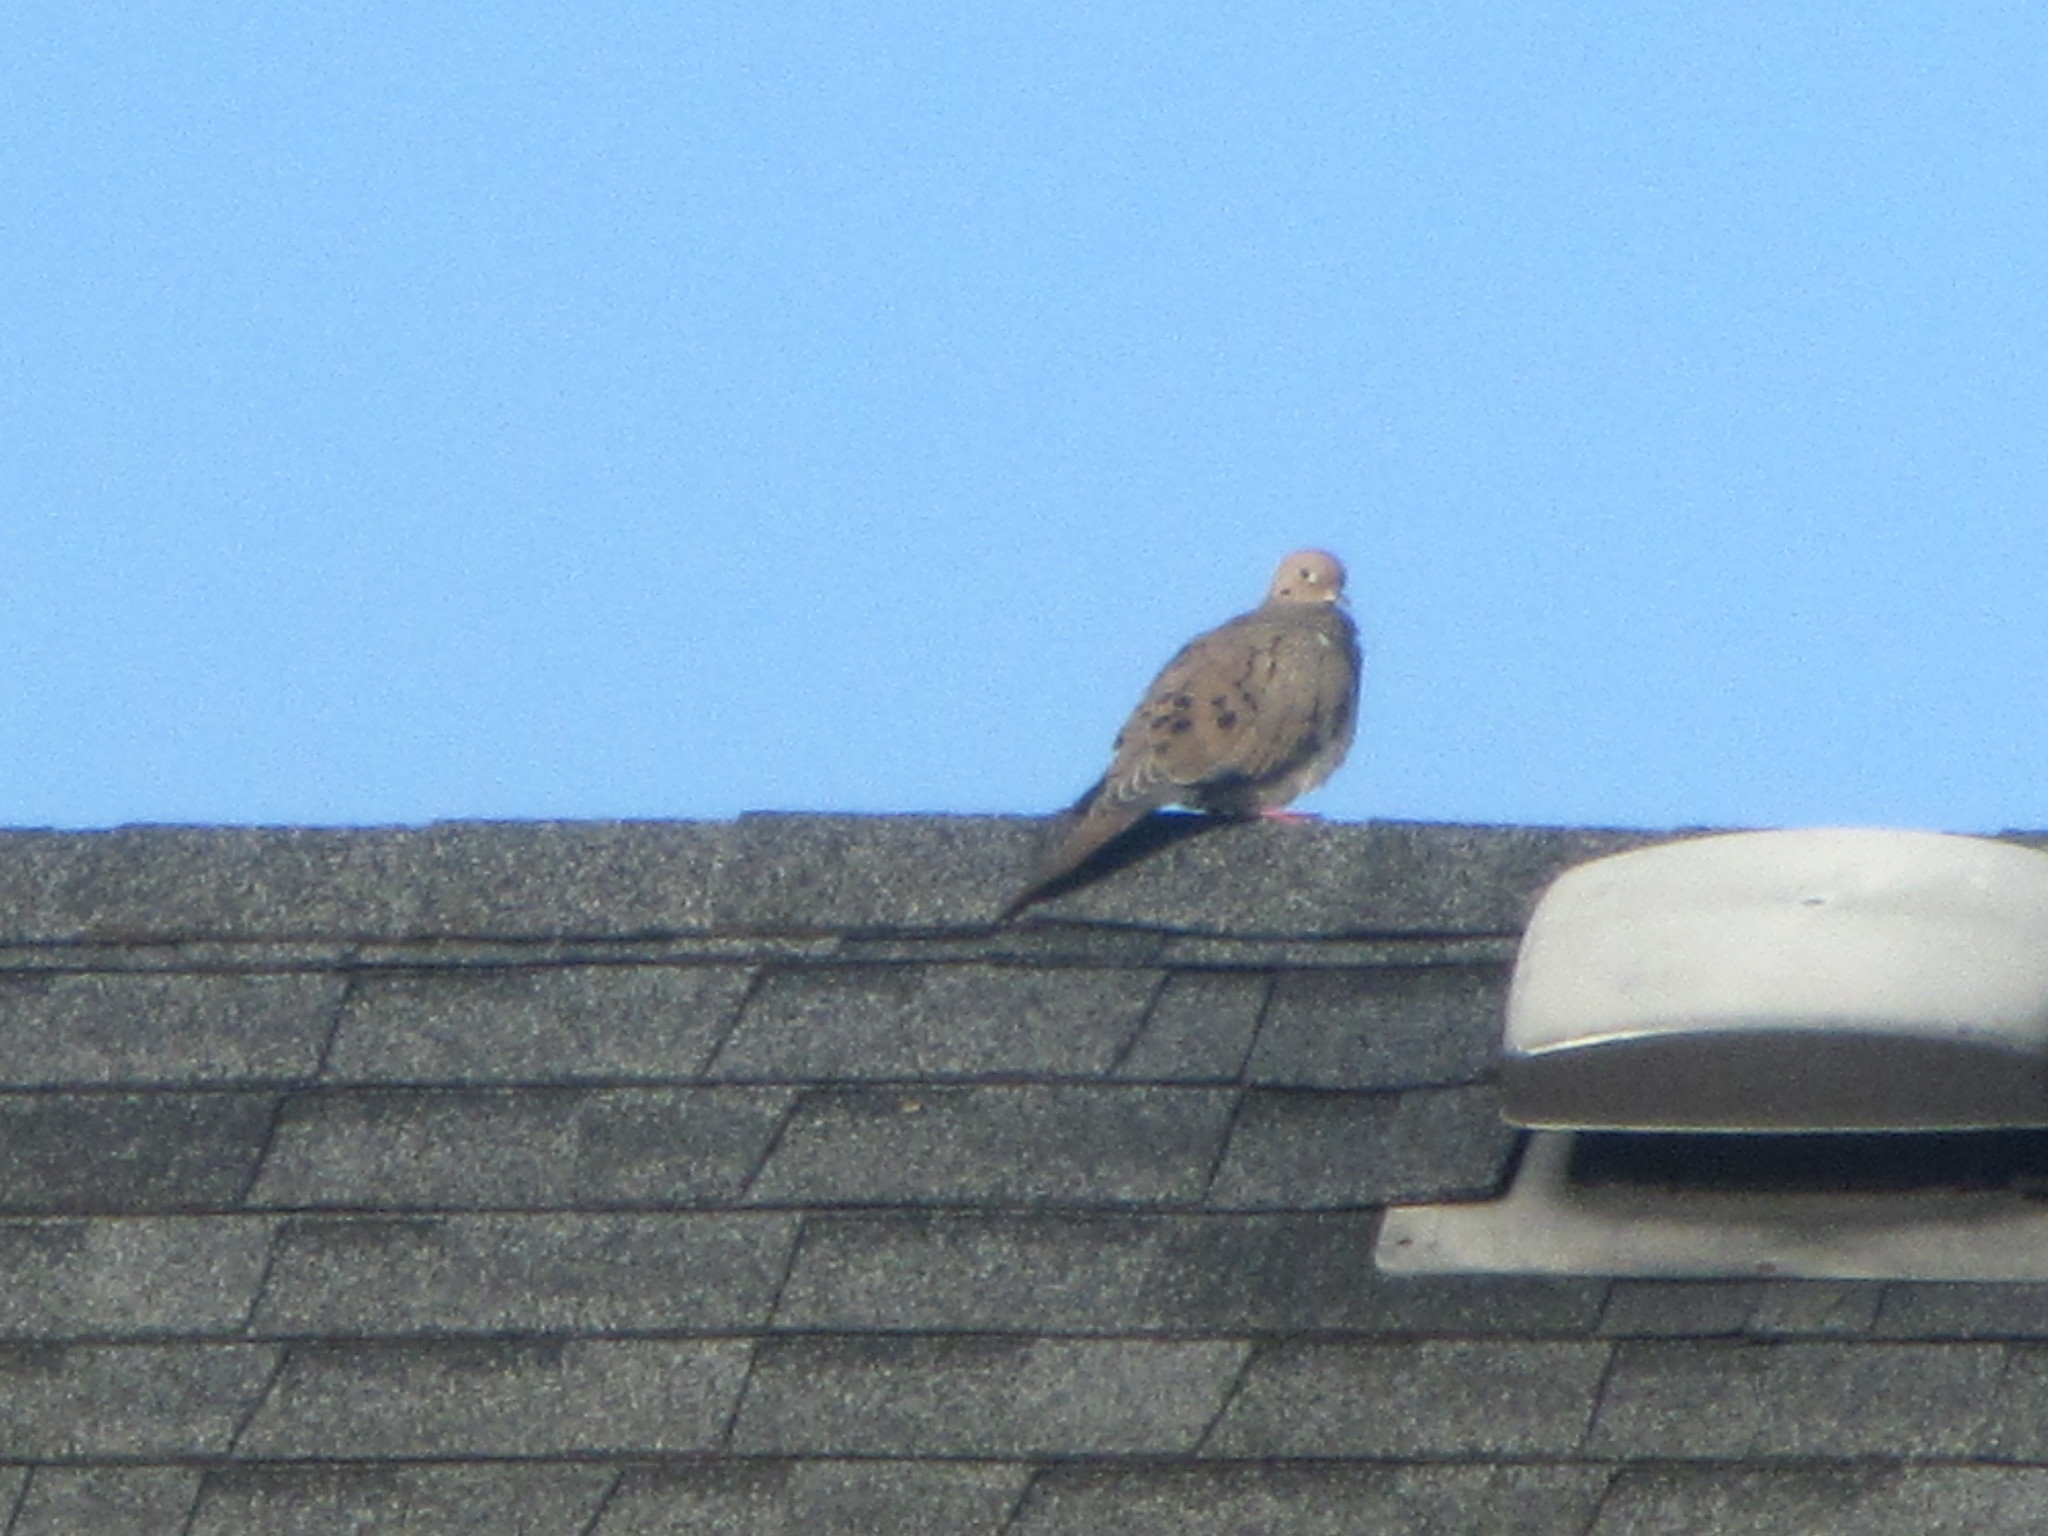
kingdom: Animalia
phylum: Chordata
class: Aves
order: Columbiformes
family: Columbidae
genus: Zenaida
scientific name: Zenaida macroura
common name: Mourning dove
